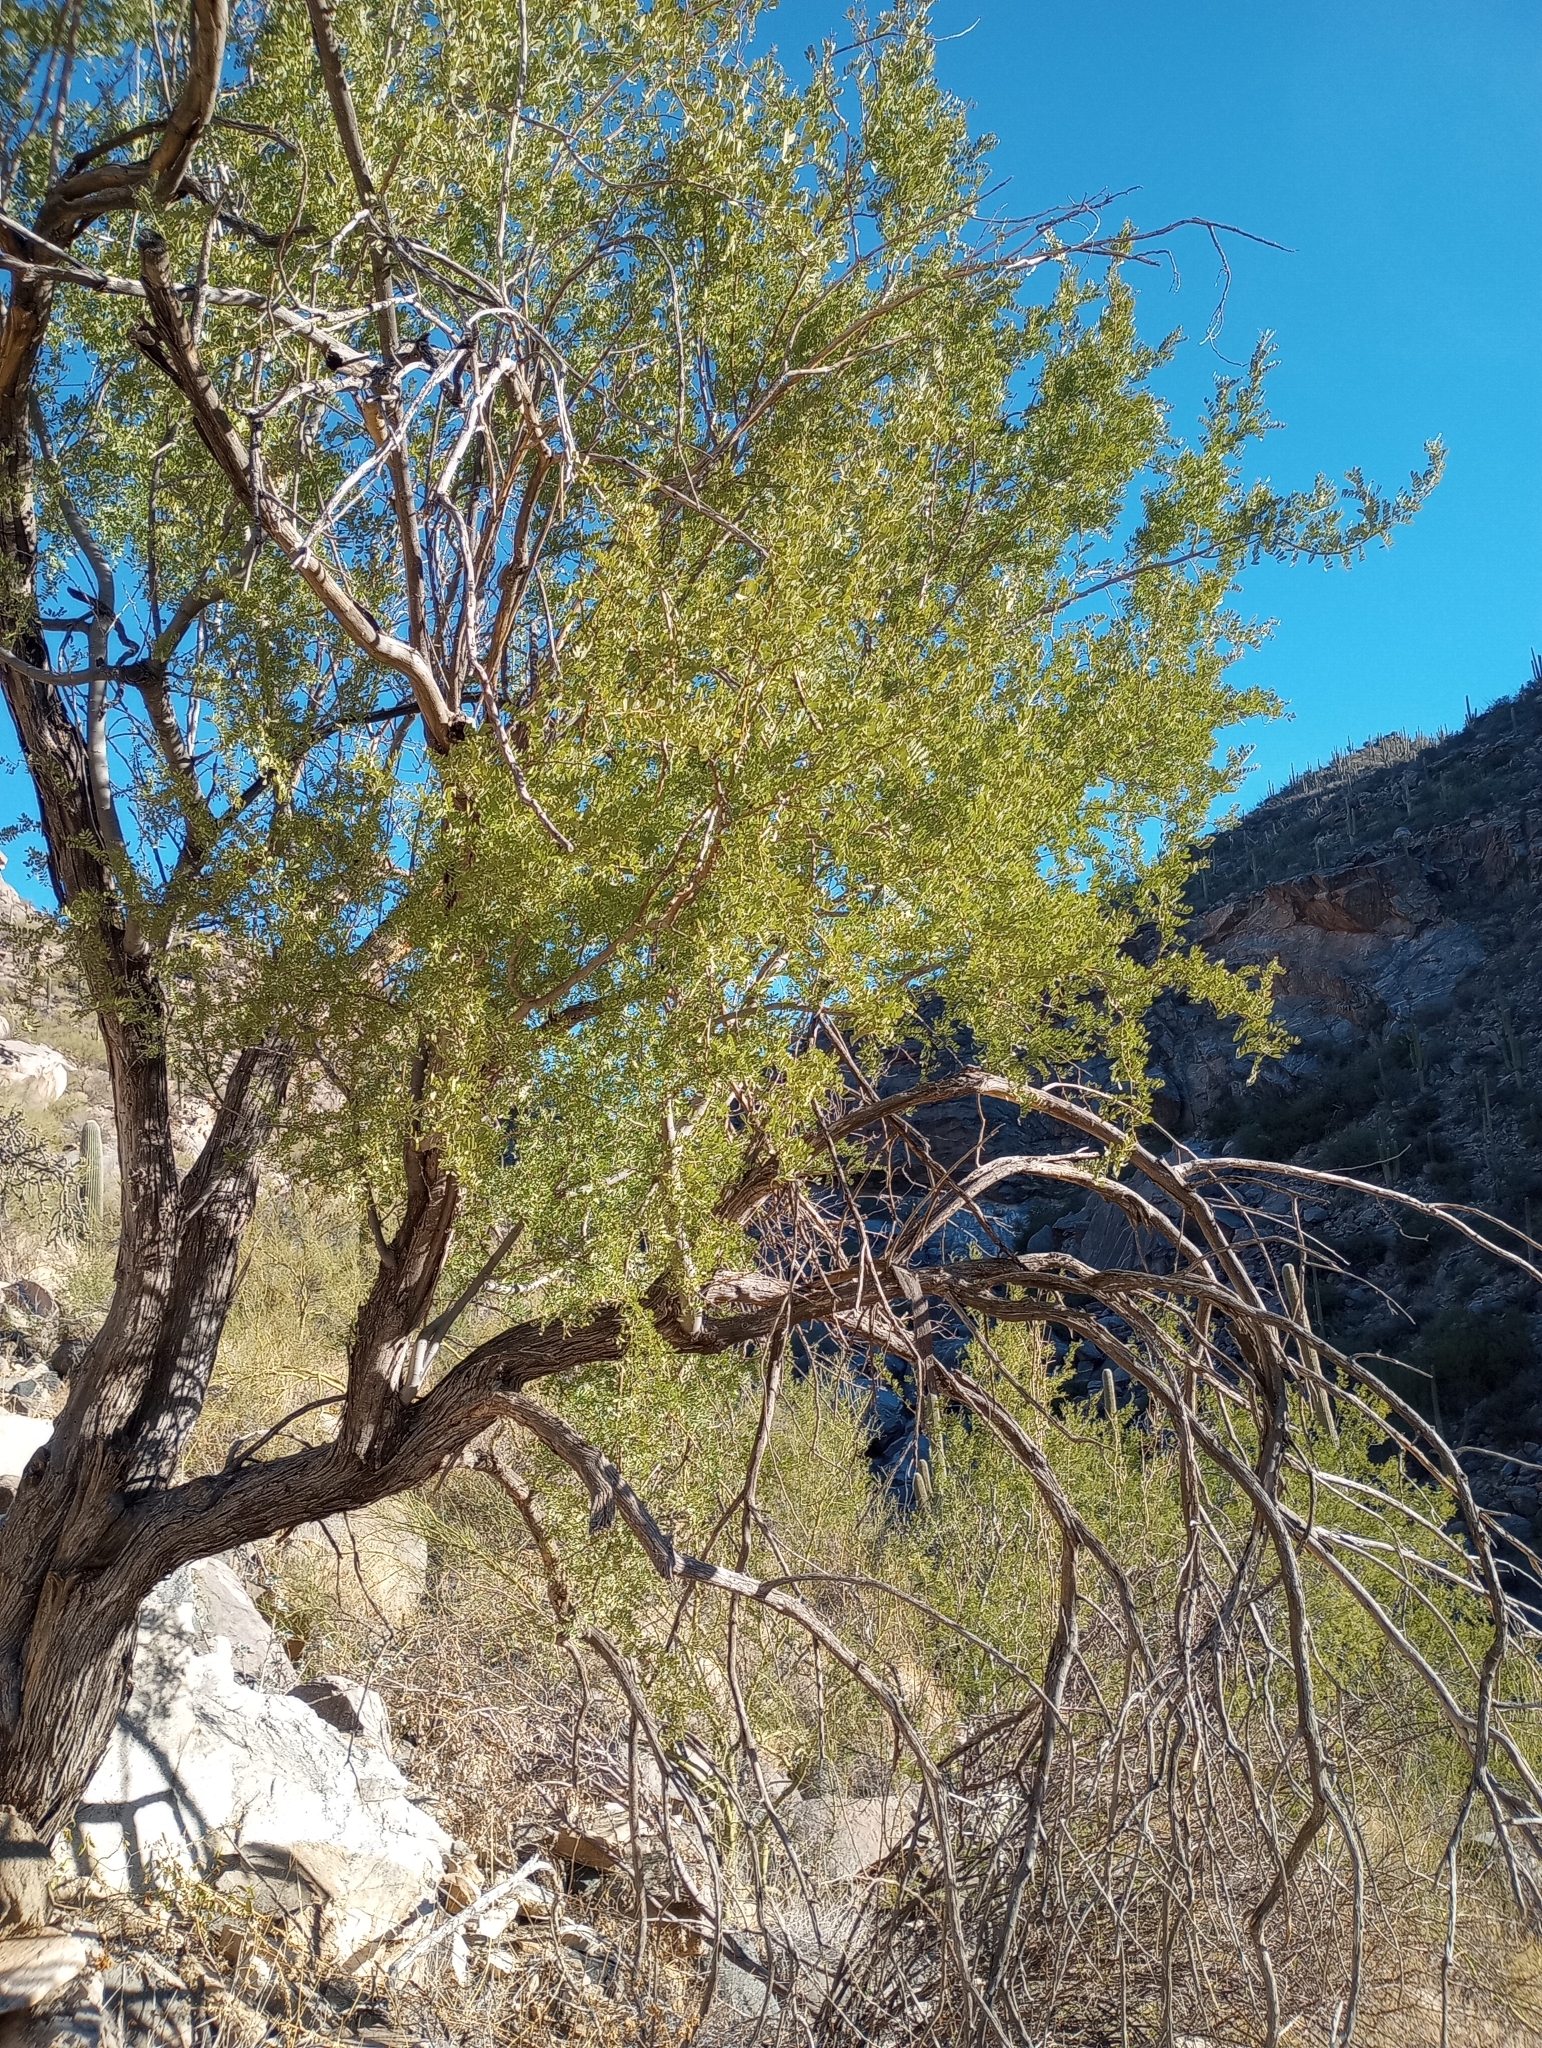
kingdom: Plantae
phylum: Tracheophyta
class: Magnoliopsida
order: Fabales
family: Fabaceae
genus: Olneya
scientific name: Olneya tesota
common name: Desert ironwood
